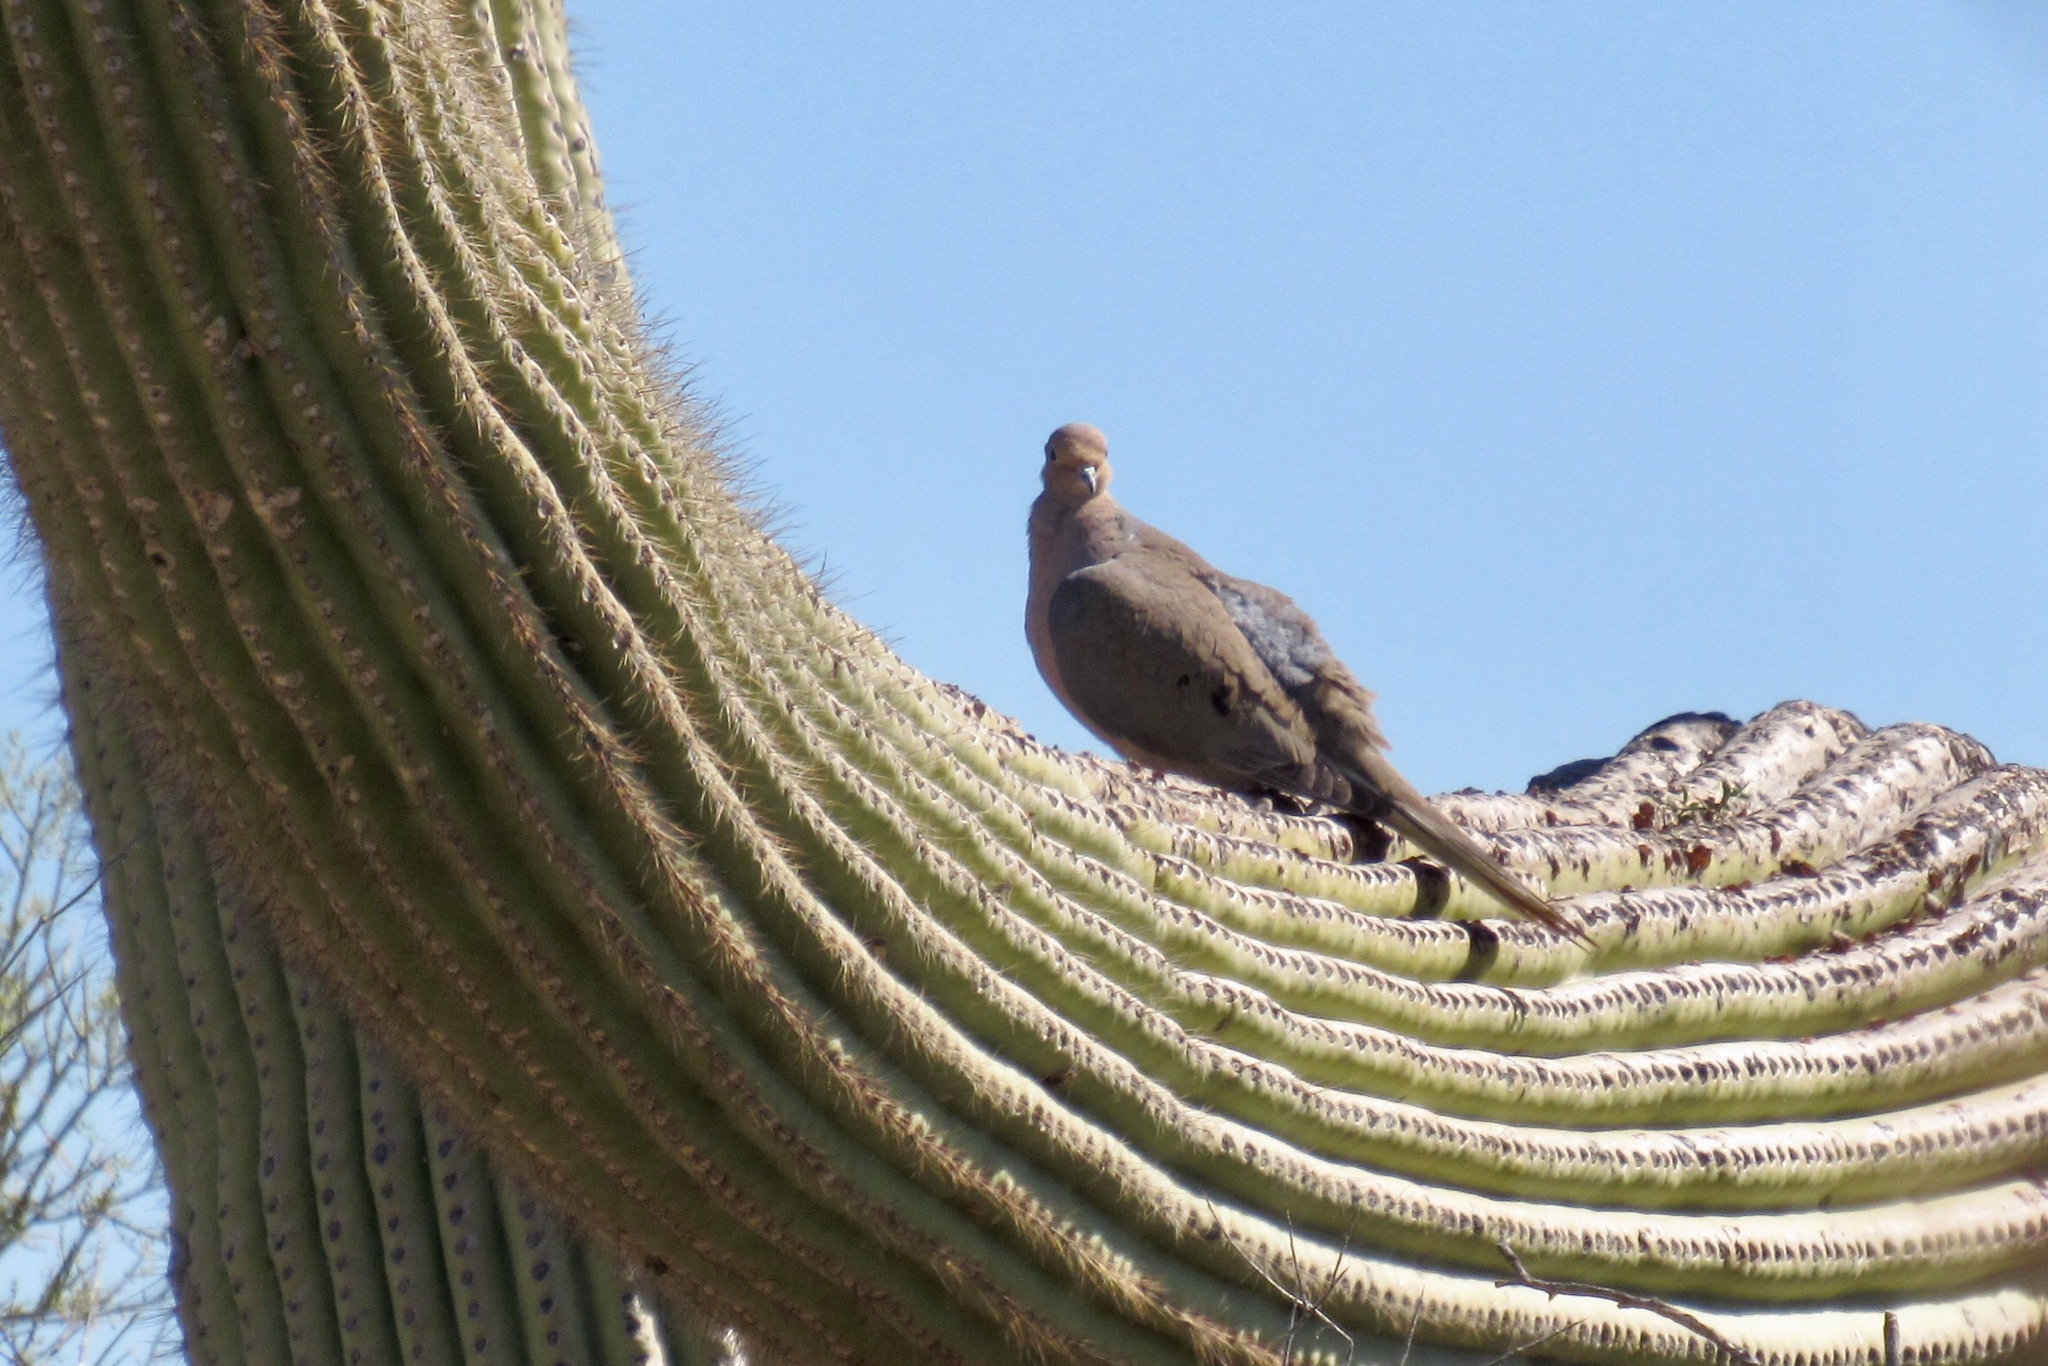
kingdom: Animalia
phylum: Chordata
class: Aves
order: Columbiformes
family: Columbidae
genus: Zenaida
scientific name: Zenaida macroura
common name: Mourning dove
